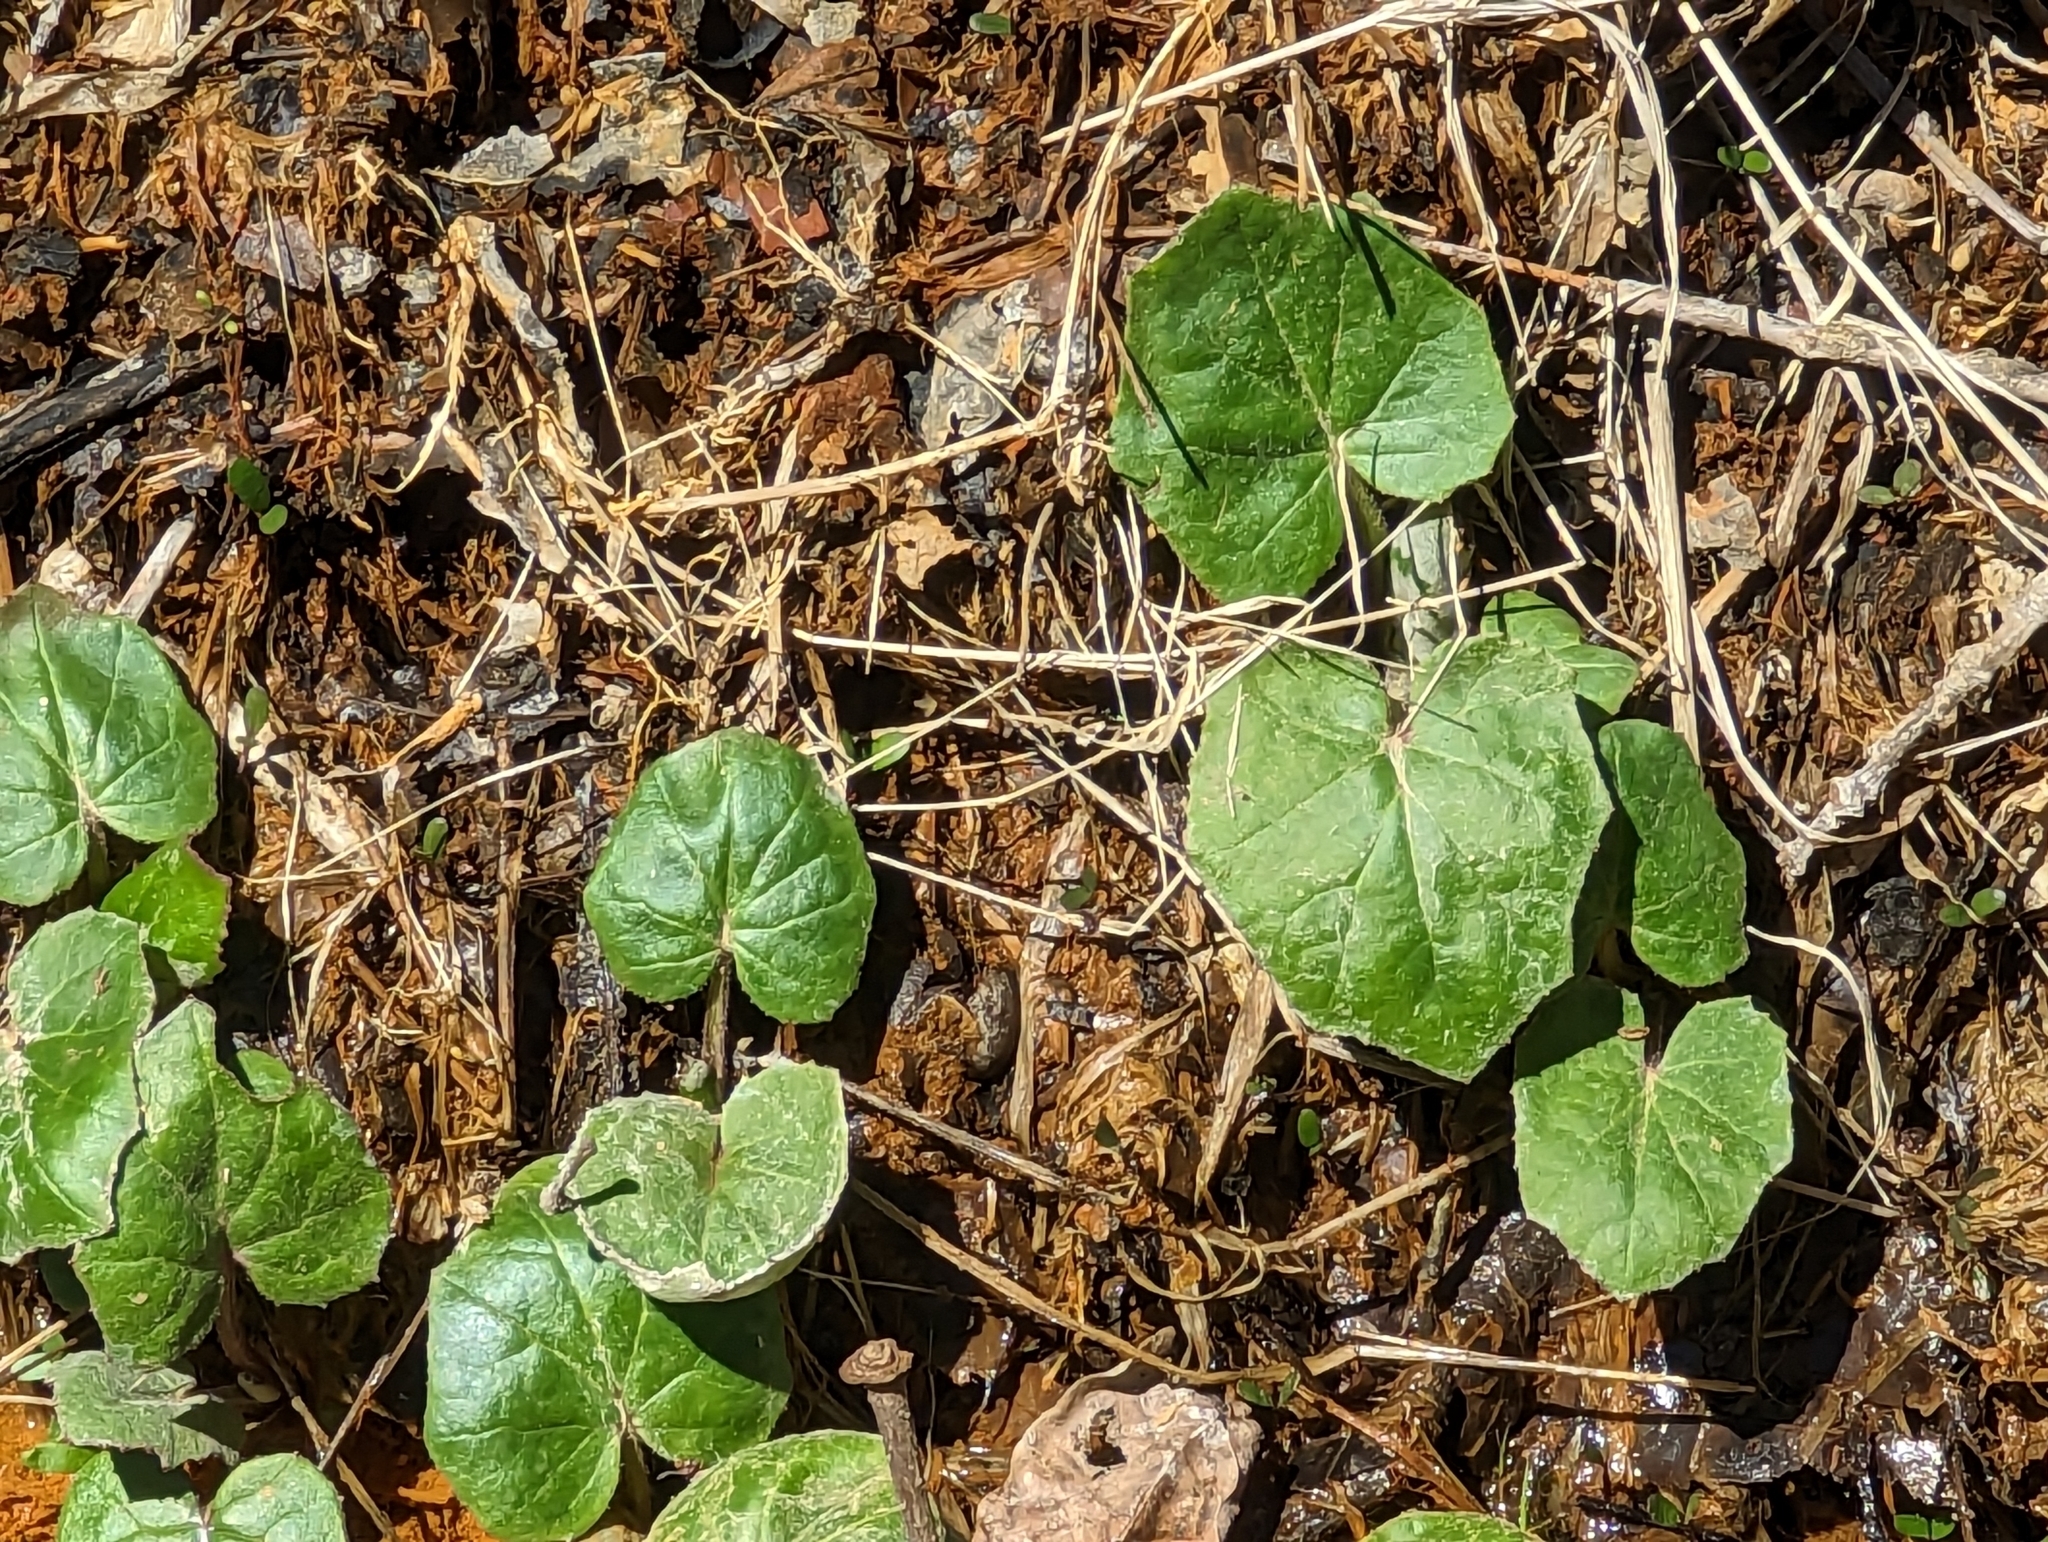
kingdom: Plantae
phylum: Tracheophyta
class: Magnoliopsida
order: Asterales
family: Asteraceae
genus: Tussilago
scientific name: Tussilago farfara
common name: Coltsfoot
